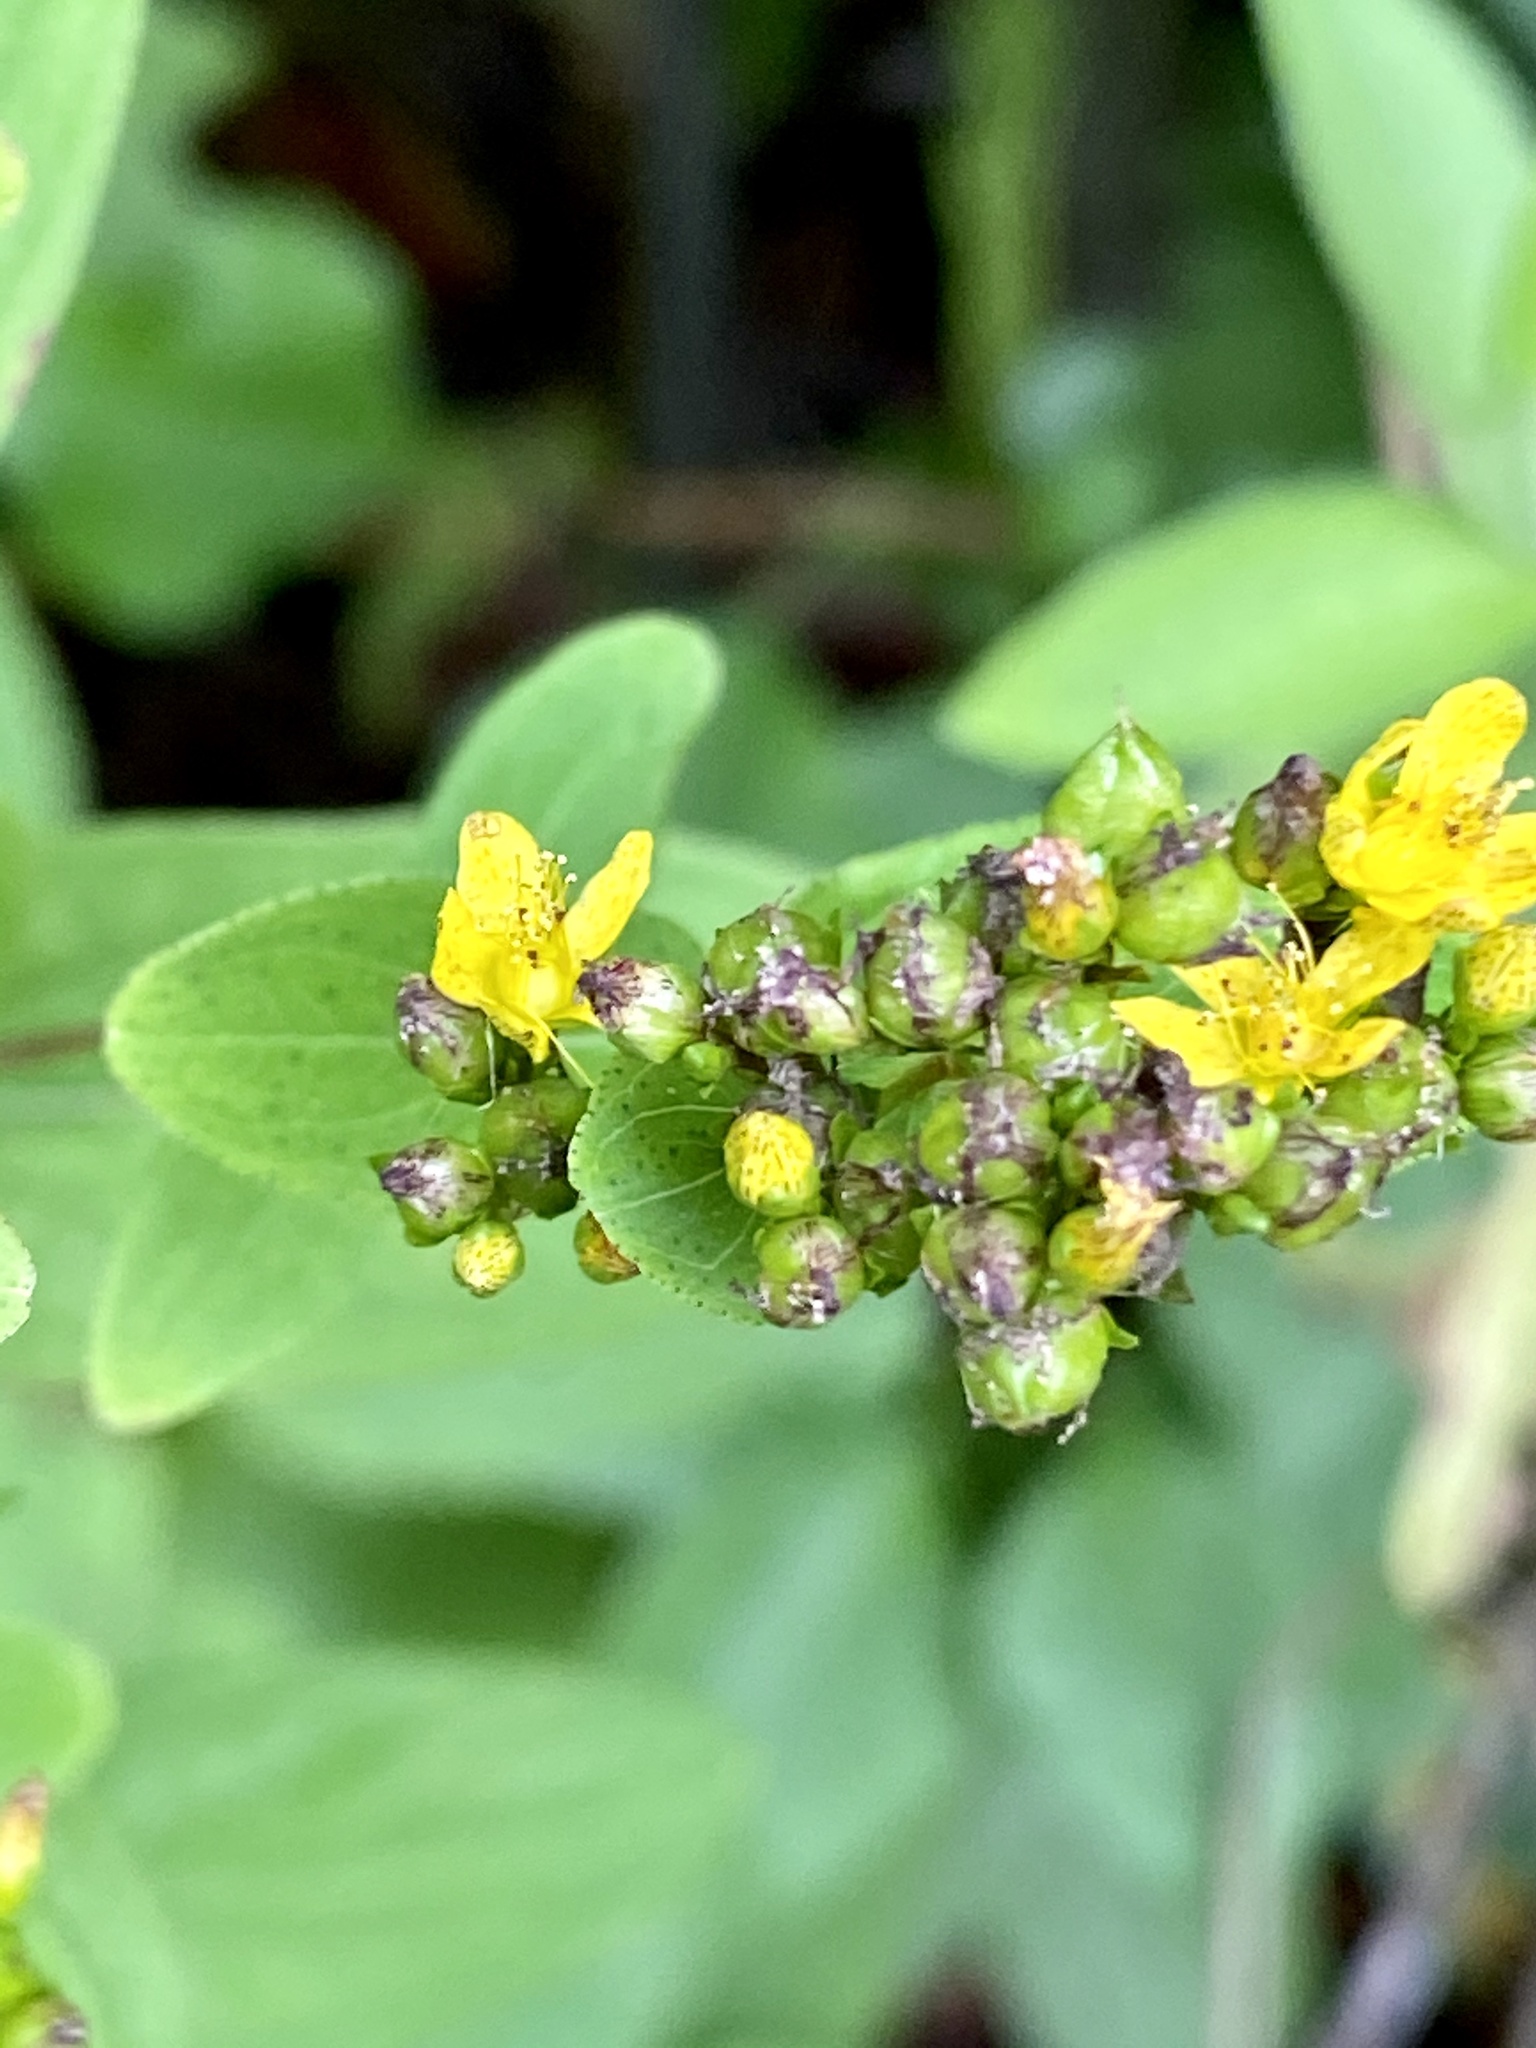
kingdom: Plantae
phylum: Tracheophyta
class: Magnoliopsida
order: Malpighiales
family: Hypericaceae
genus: Hypericum
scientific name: Hypericum punctatum
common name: Spotted st. john's-wort
